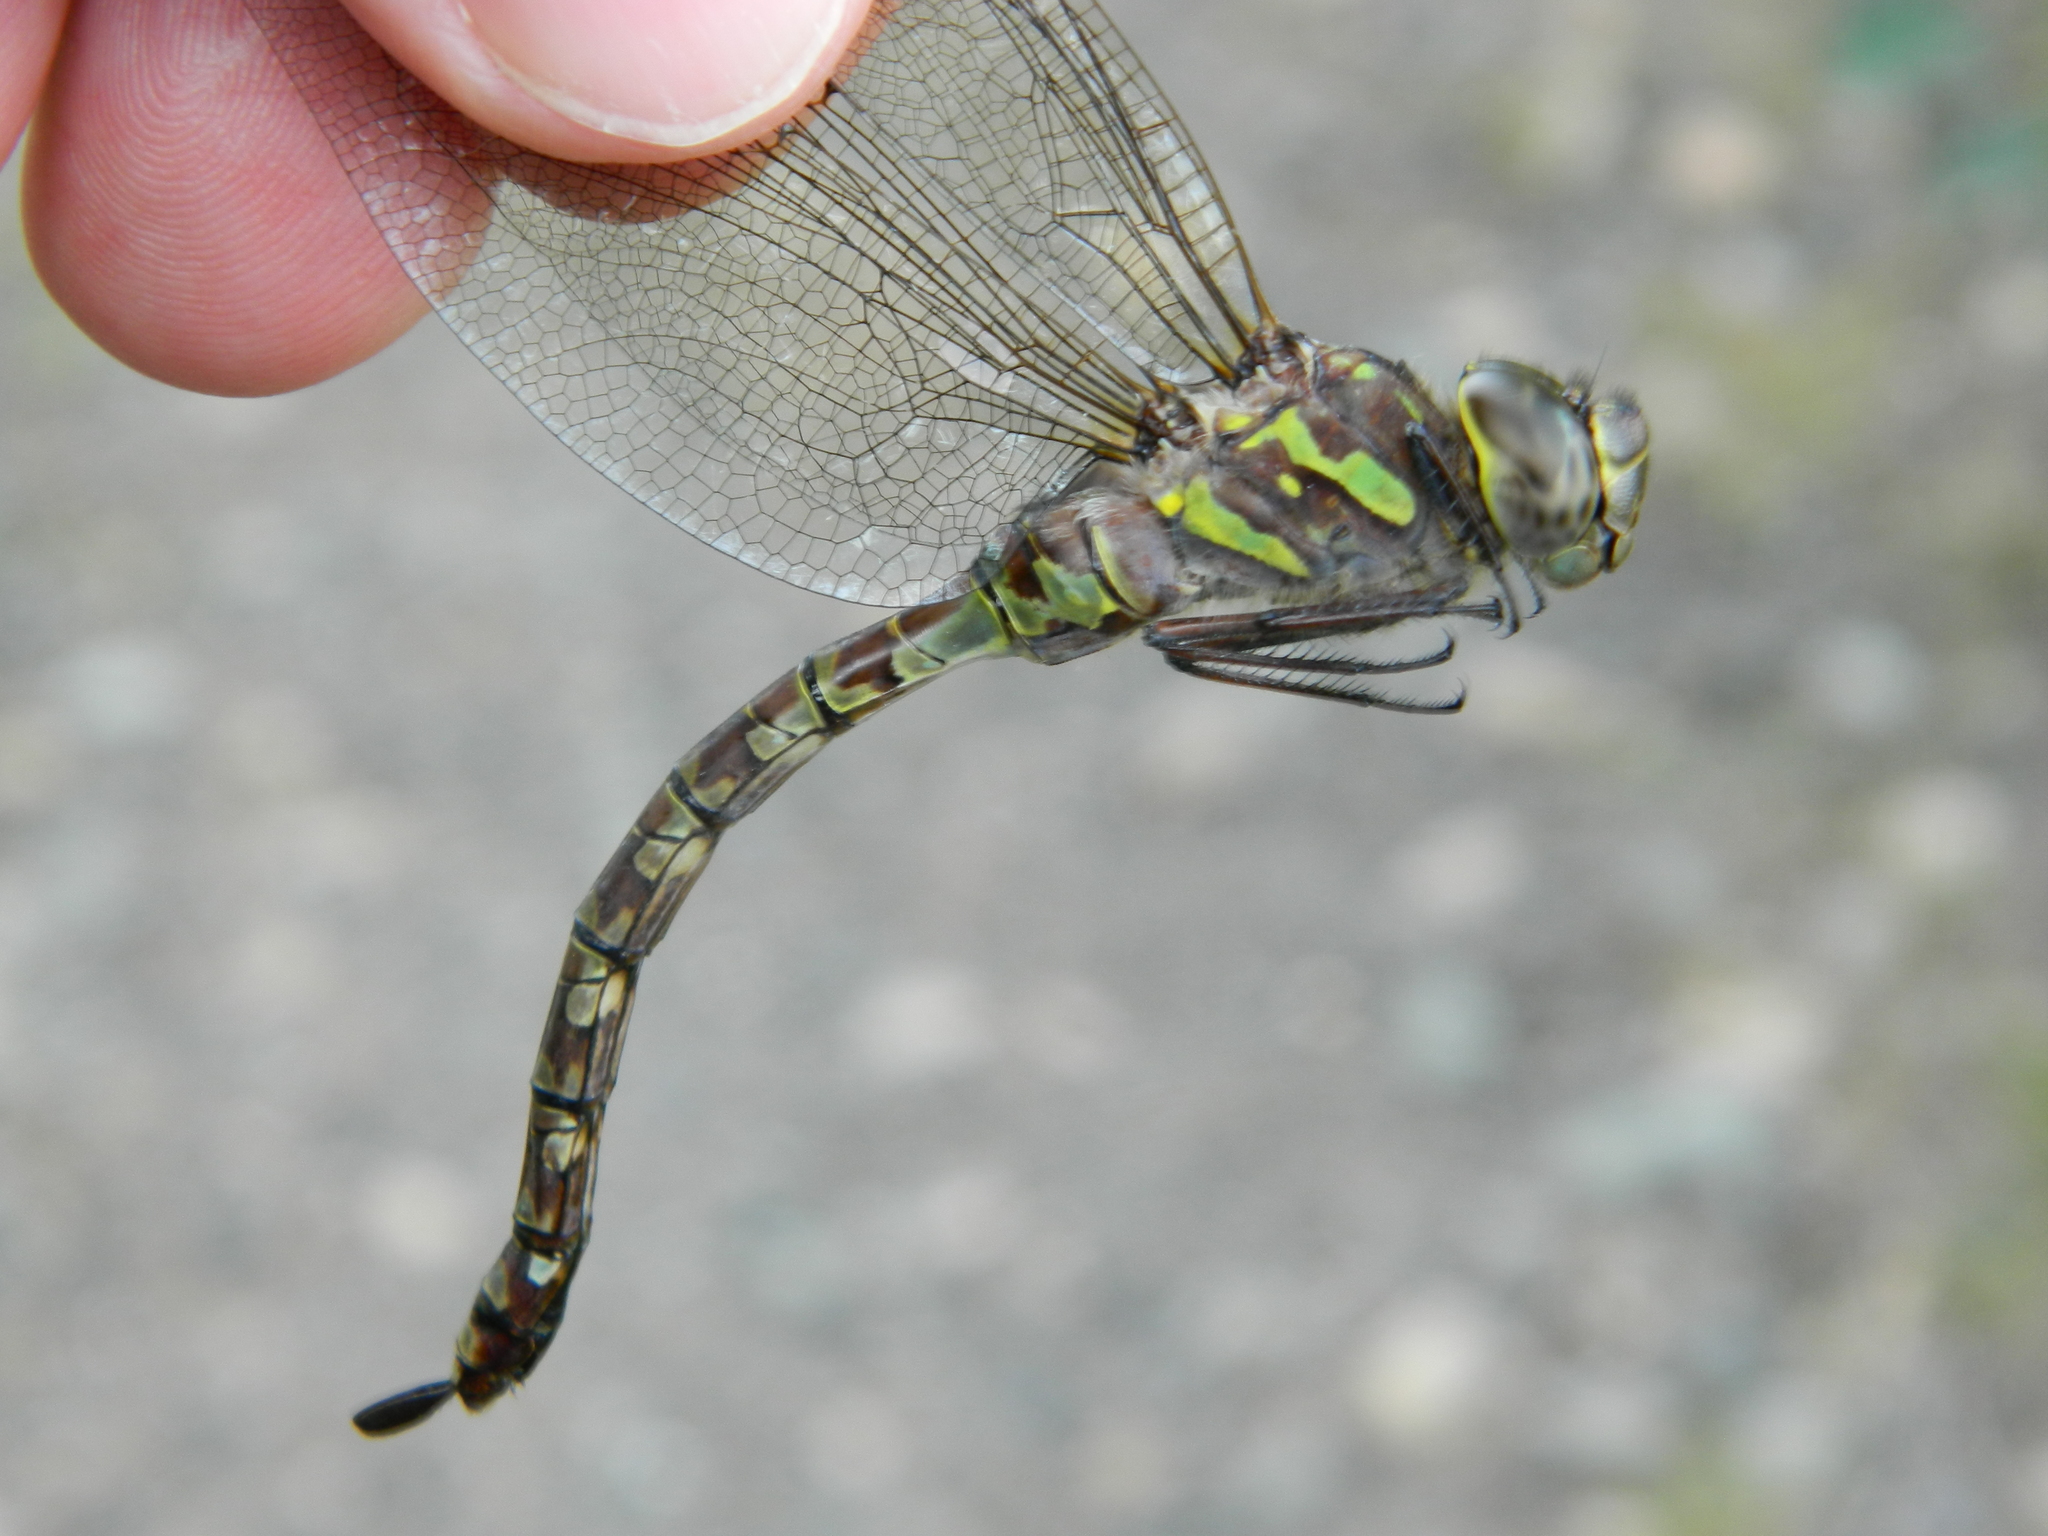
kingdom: Animalia
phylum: Arthropoda
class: Insecta
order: Odonata
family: Aeshnidae
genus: Aeshna
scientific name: Aeshna canadensis
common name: Canada darner
